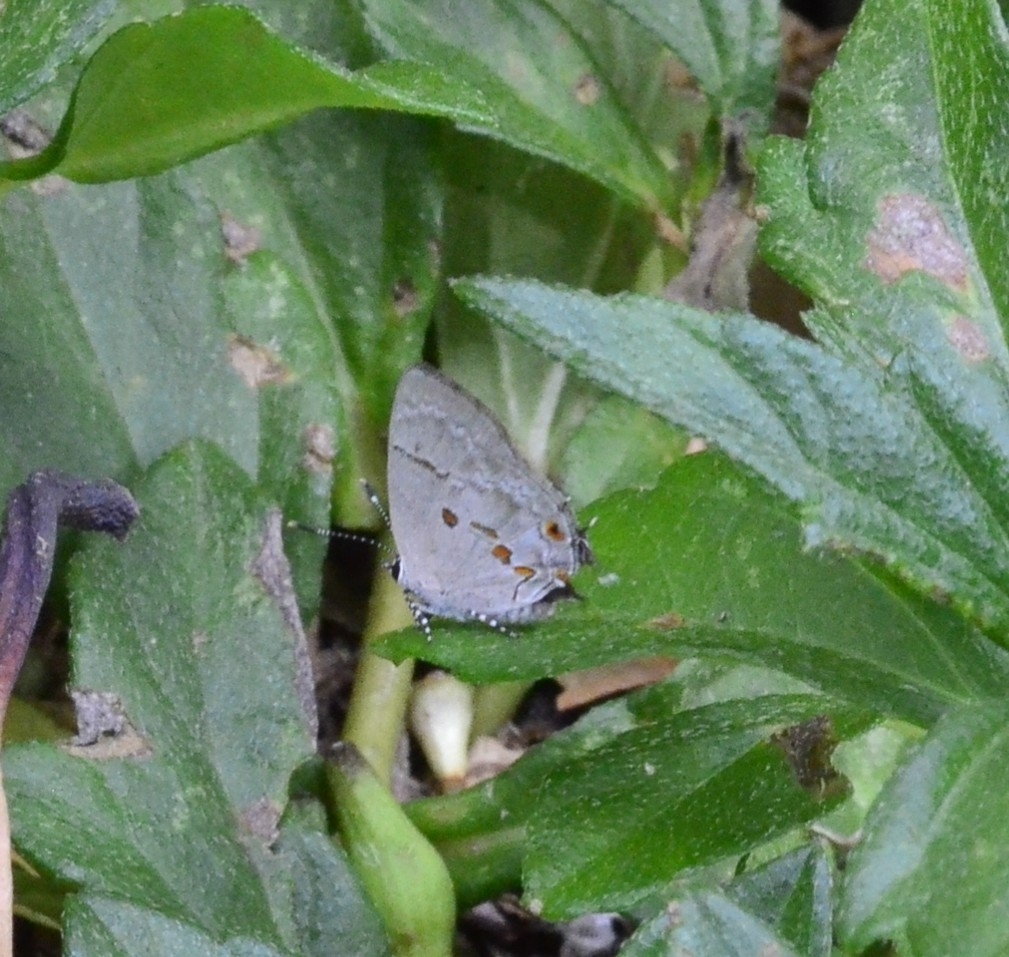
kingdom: Animalia
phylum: Arthropoda
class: Insecta
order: Lepidoptera
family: Lycaenidae
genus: Thecla
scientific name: Thecla carnica
